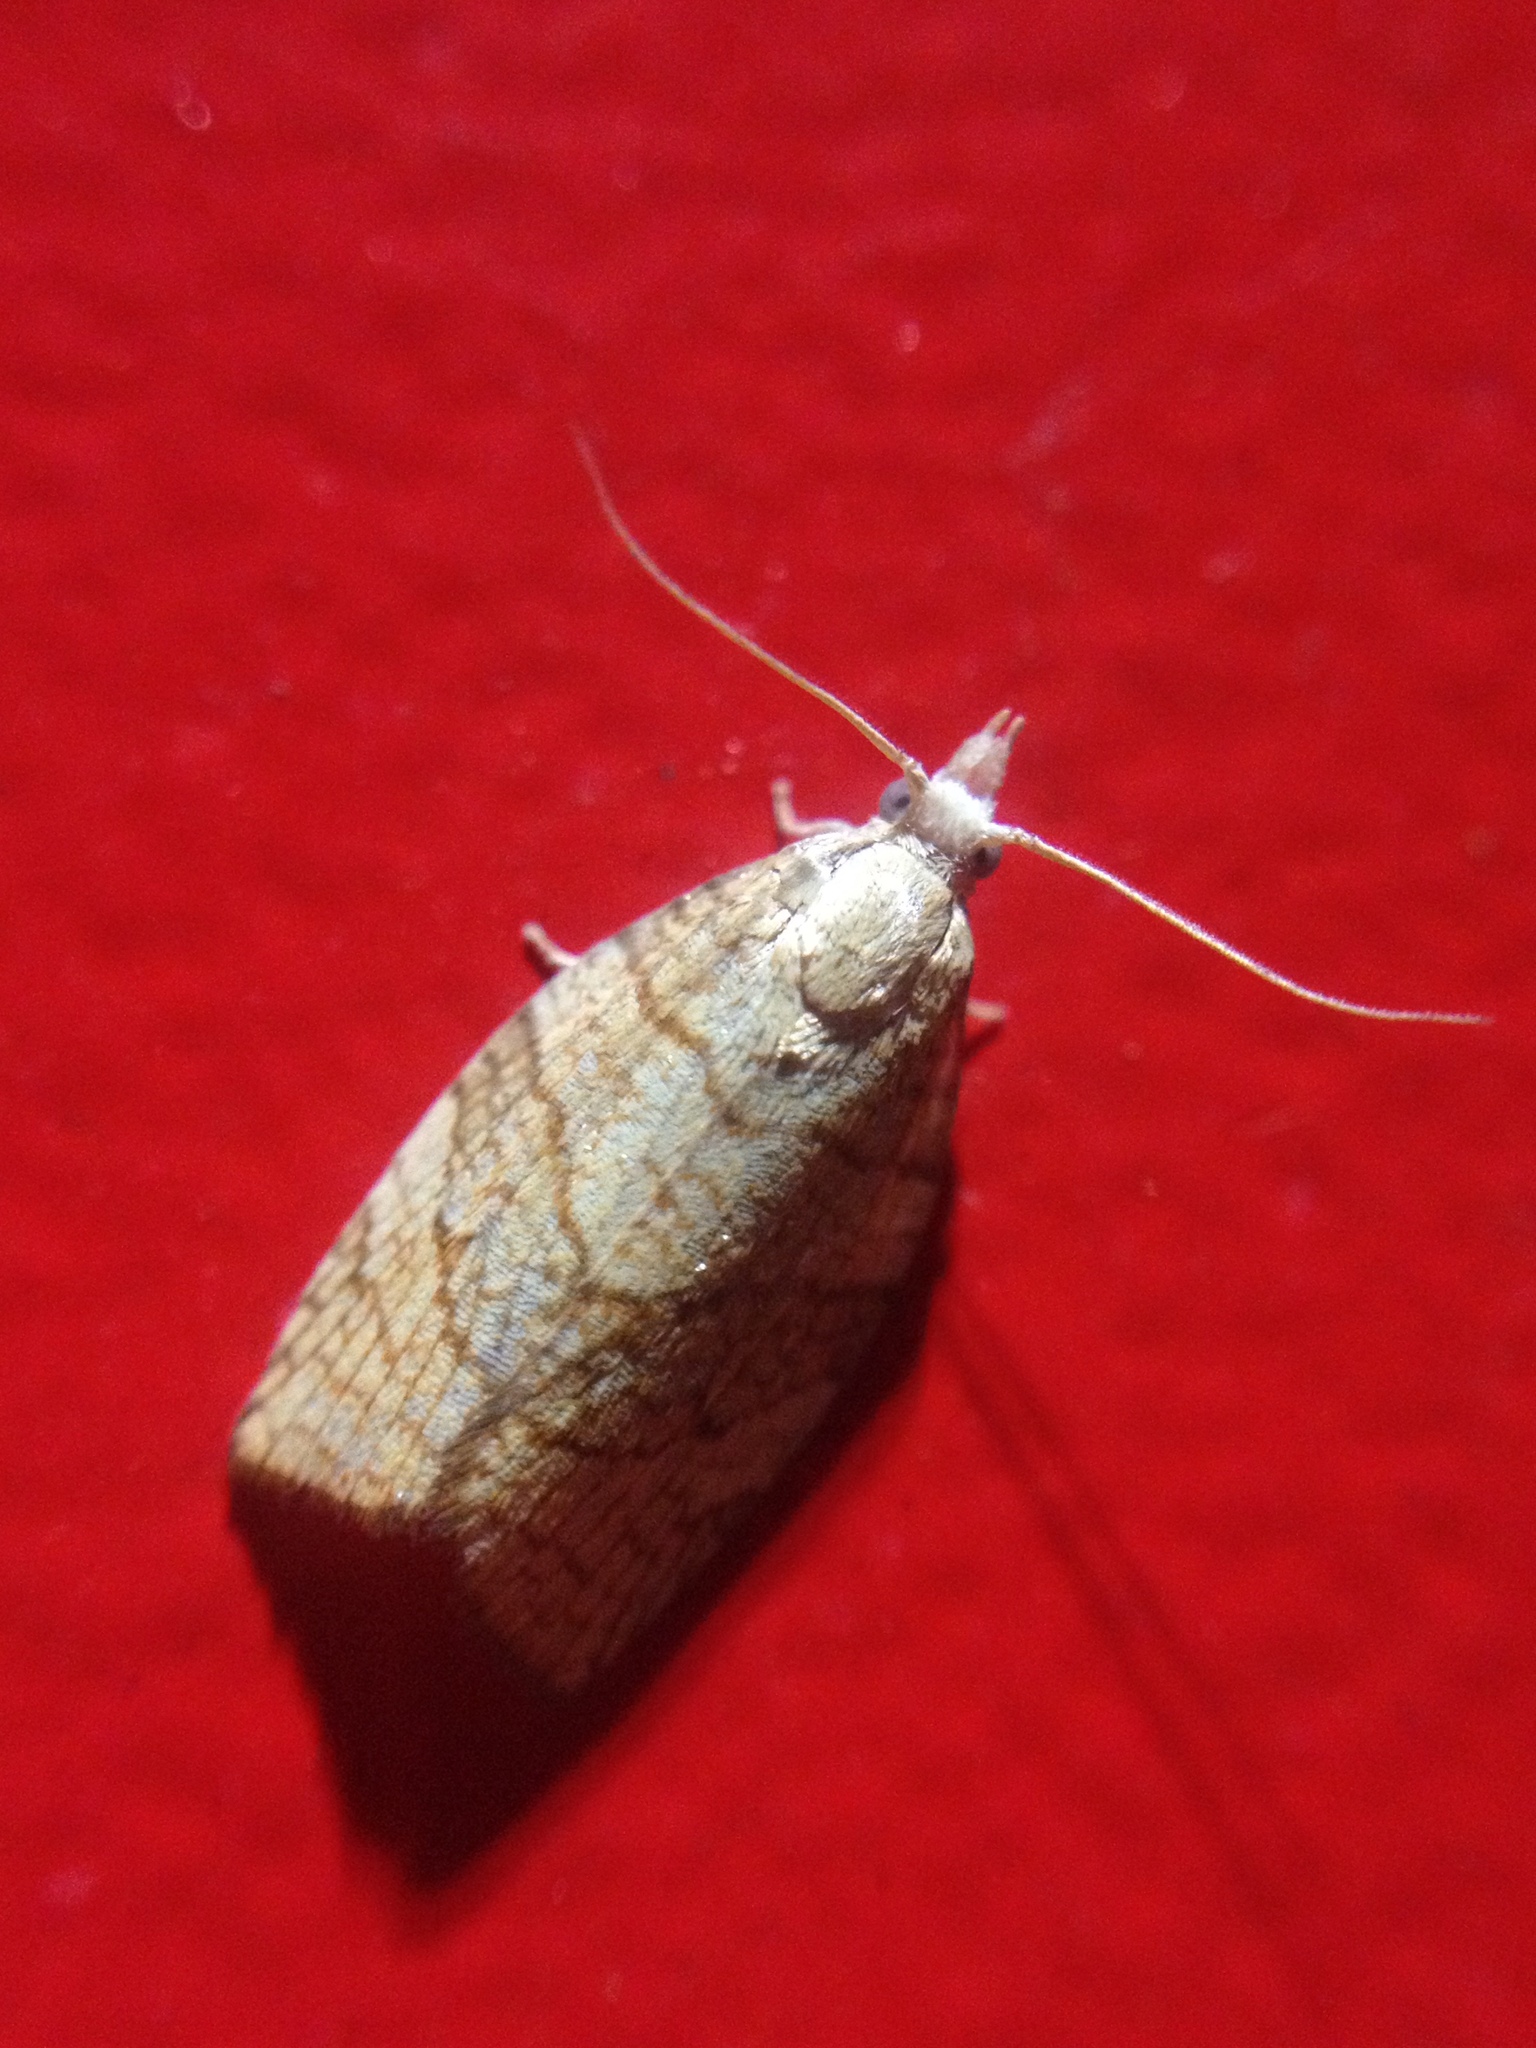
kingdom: Animalia
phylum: Arthropoda
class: Insecta
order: Lepidoptera
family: Tortricidae
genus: Pandemis
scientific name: Pandemis corylana
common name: Chequered fruit-tree tortrix
